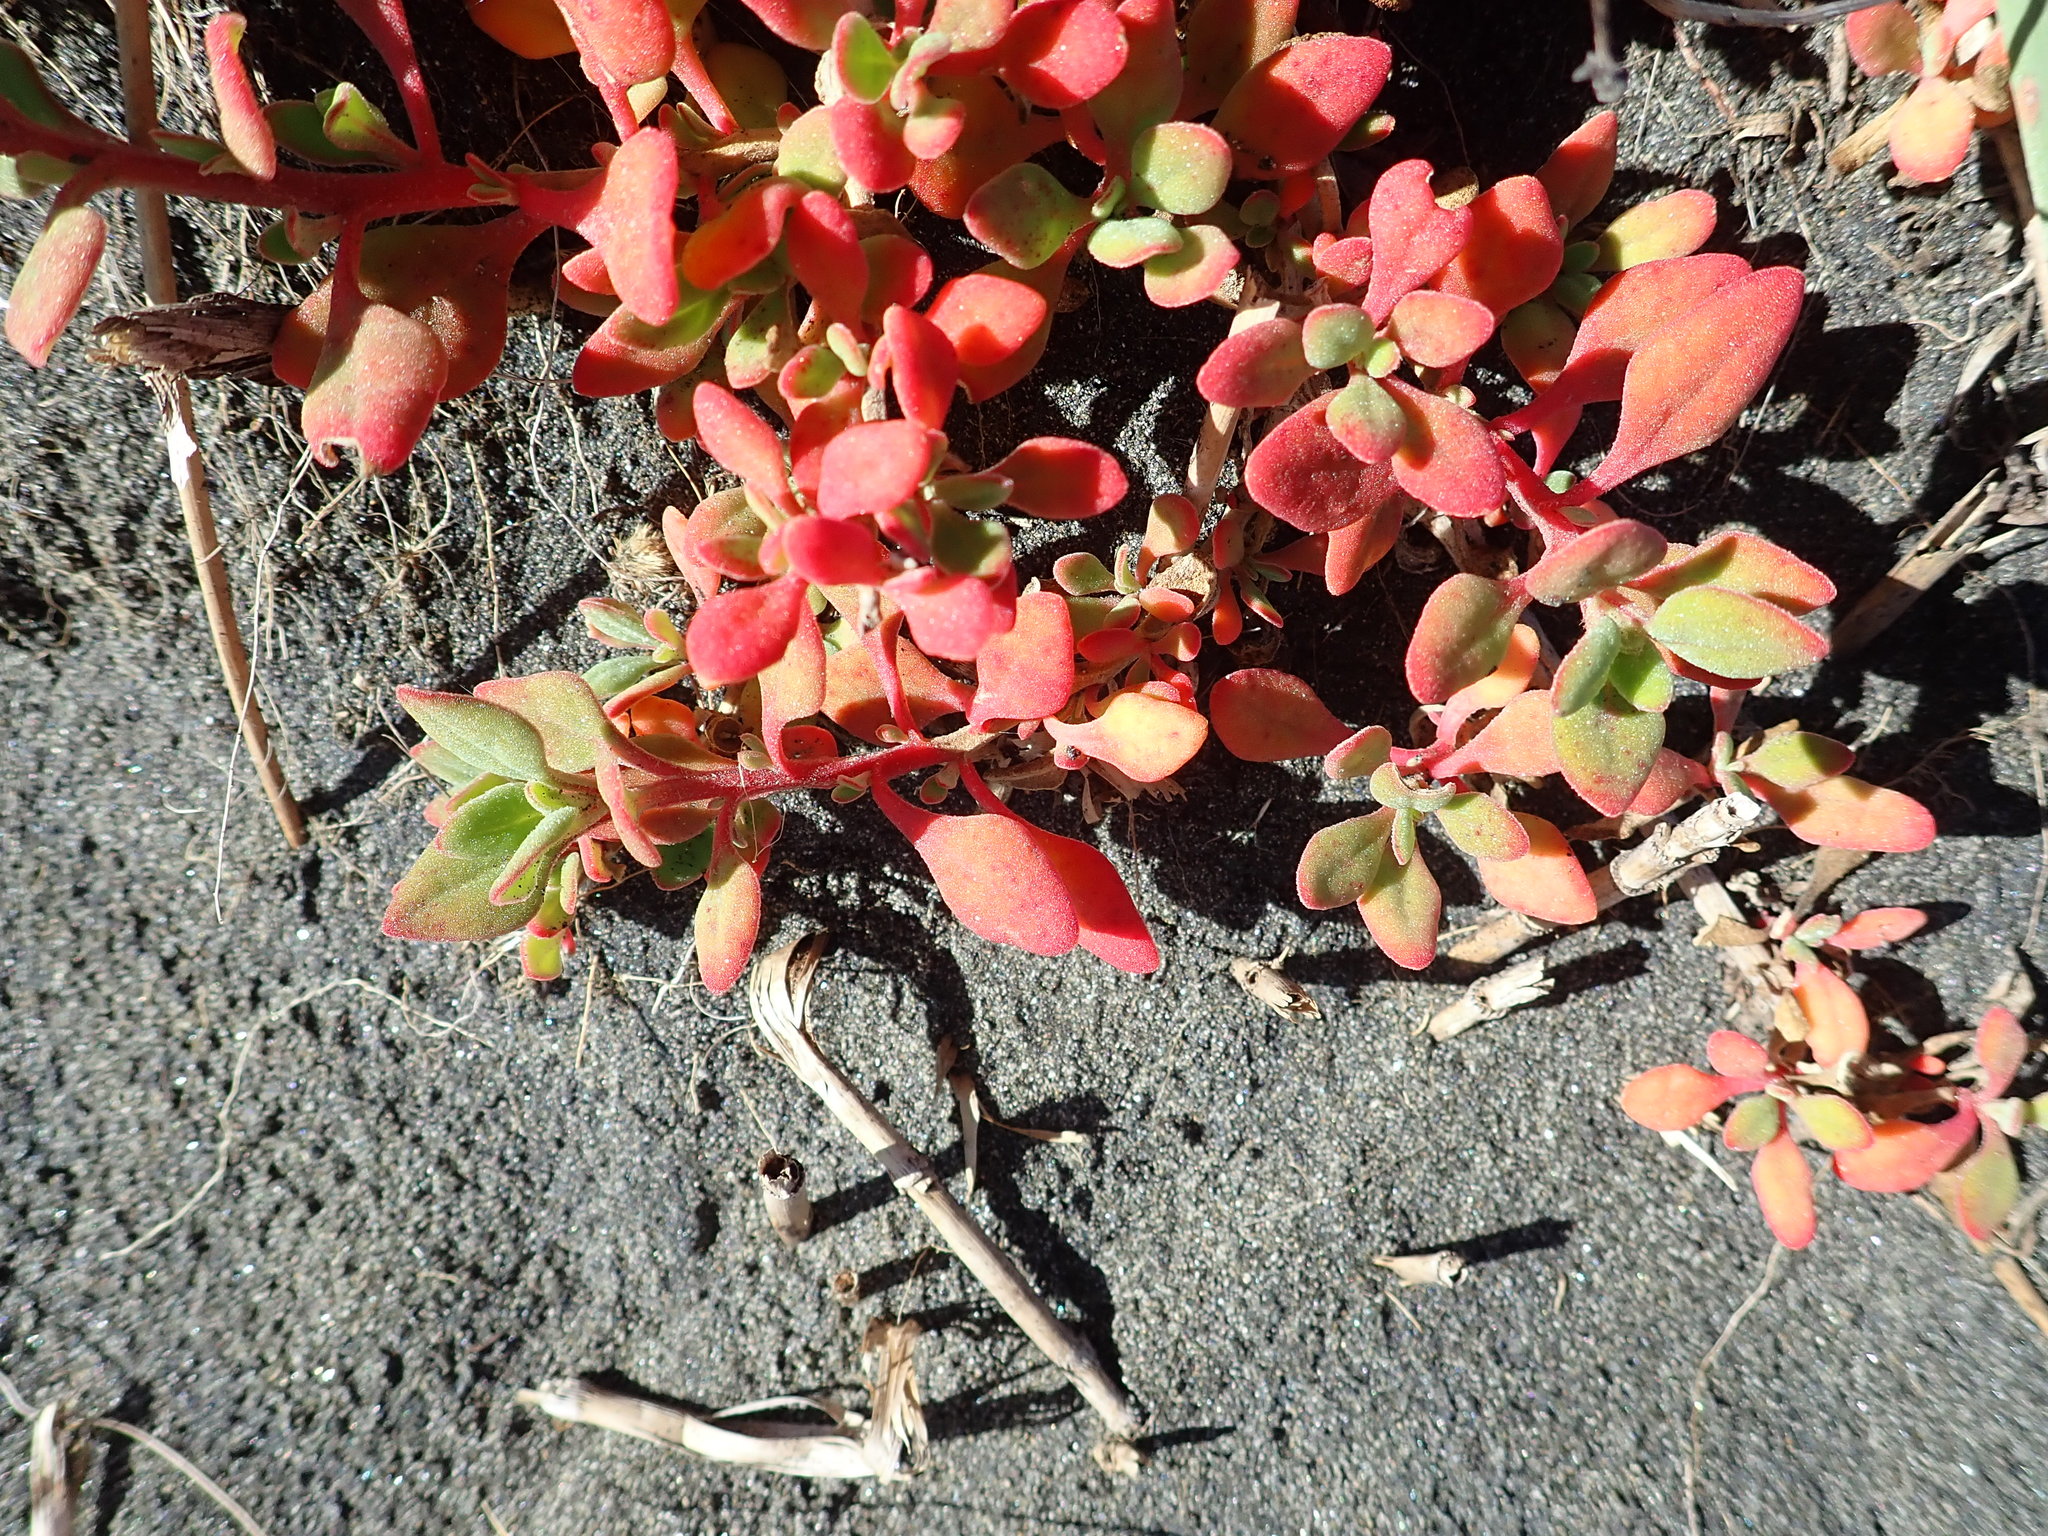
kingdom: Plantae
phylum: Tracheophyta
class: Magnoliopsida
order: Caryophyllales
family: Aizoaceae
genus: Tetragonia
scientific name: Tetragonia implexicoma
